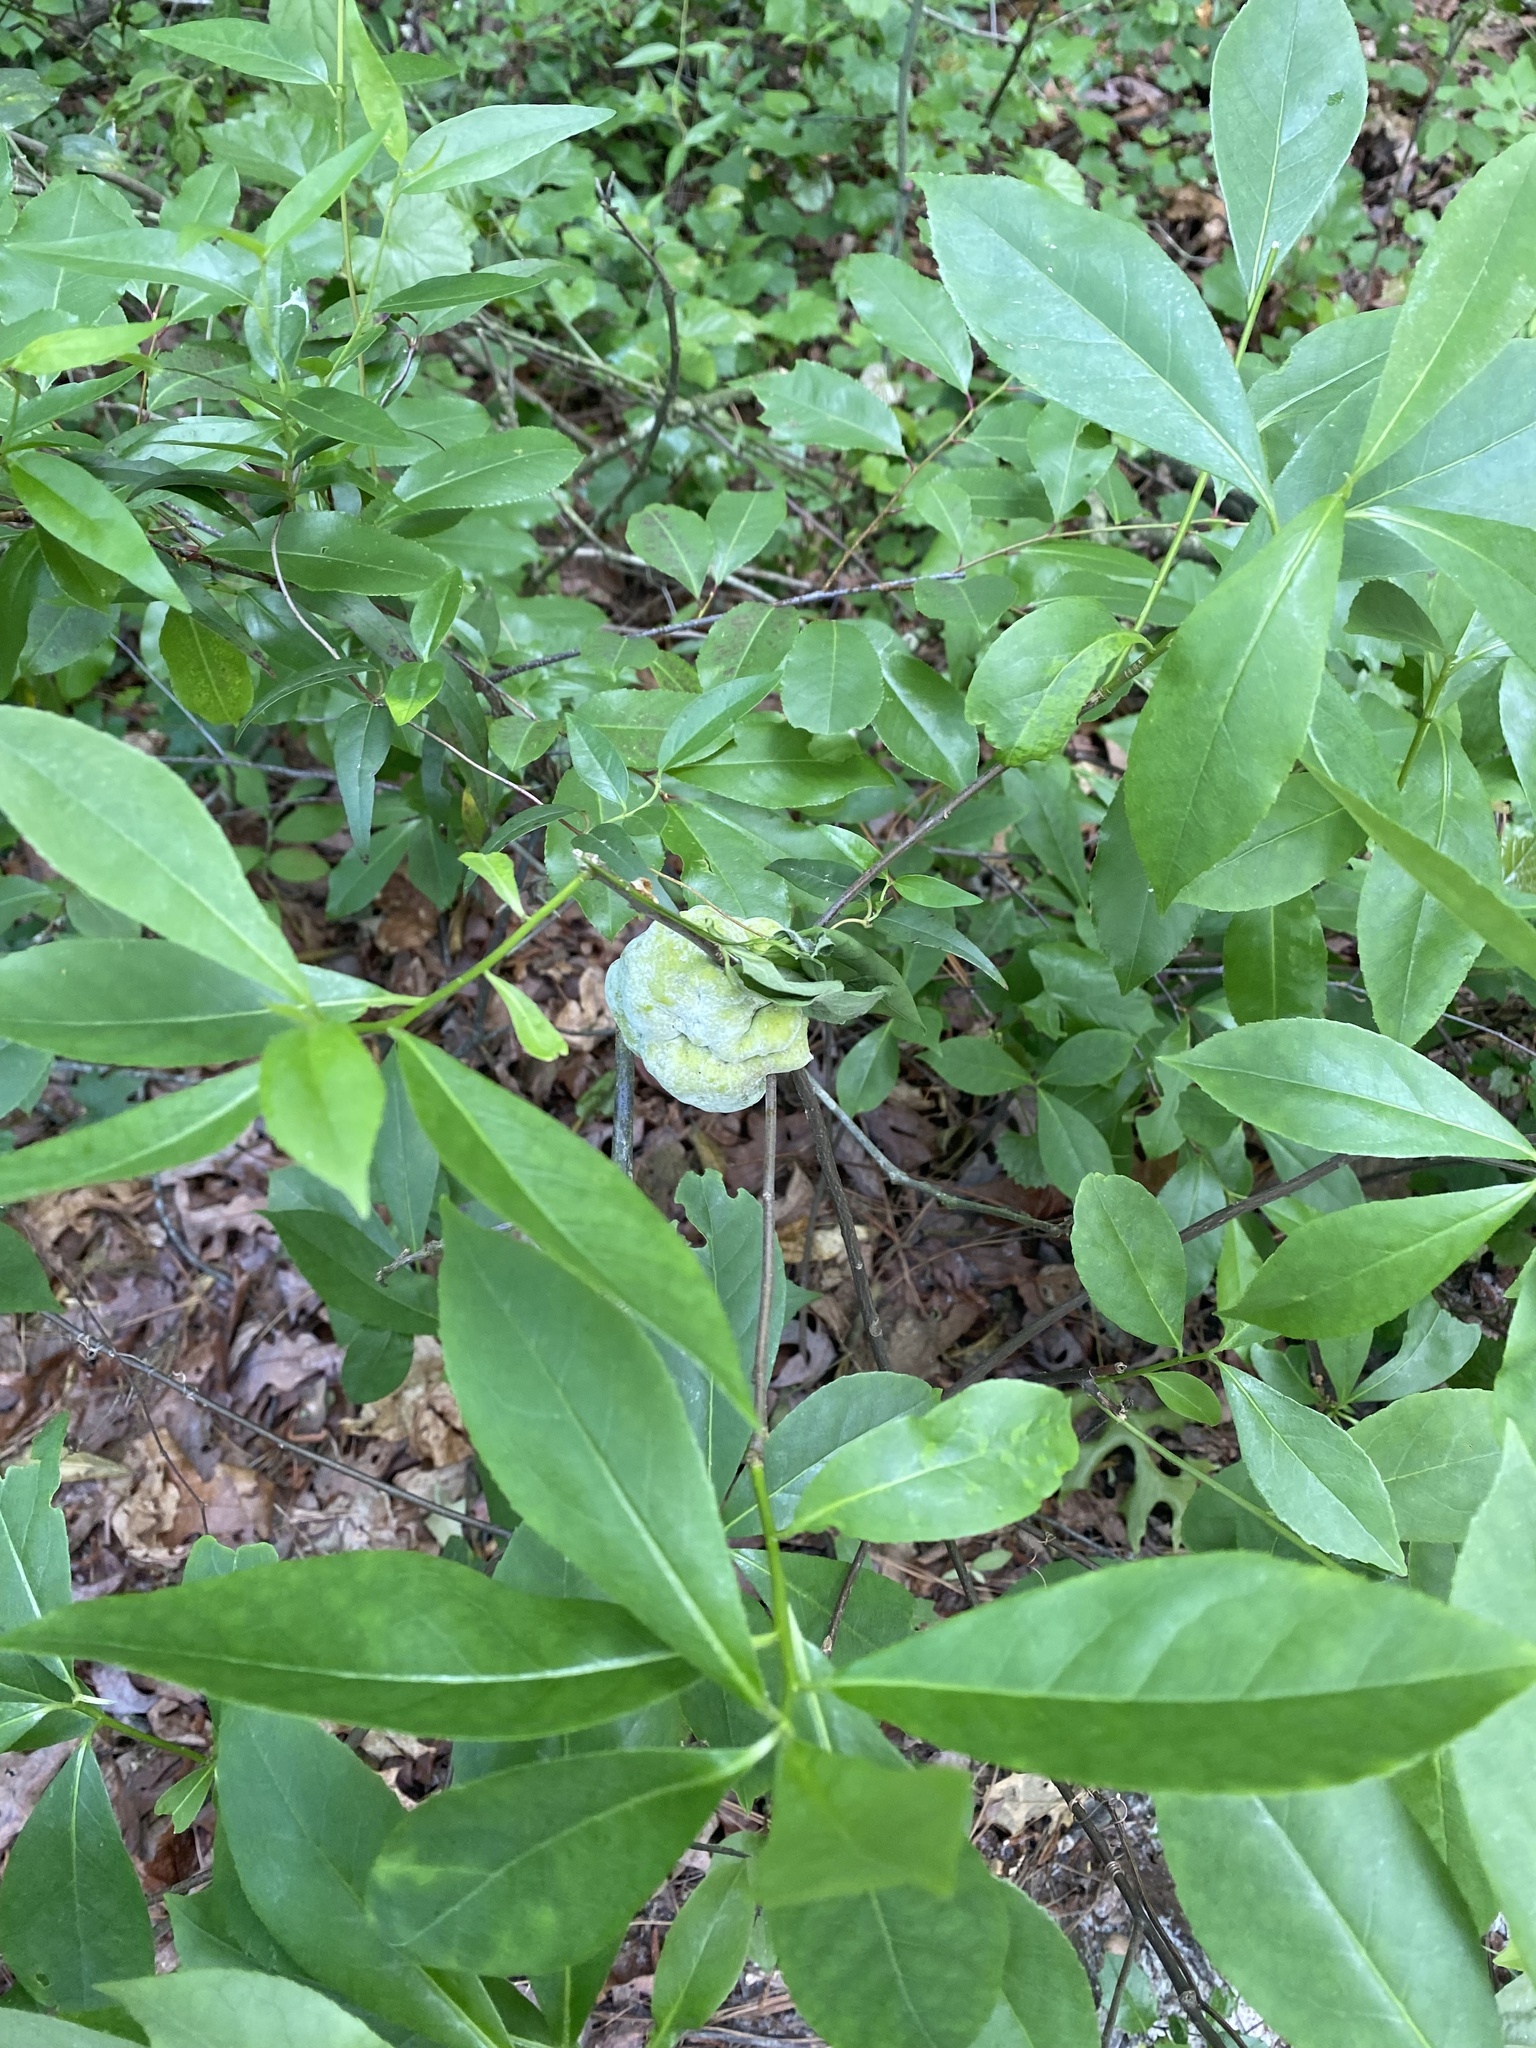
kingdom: Fungi
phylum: Basidiomycota
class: Exobasidiomycetes
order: Exobasidiales
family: Exobasidiaceae
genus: Exobasidium
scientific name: Exobasidium symploci
